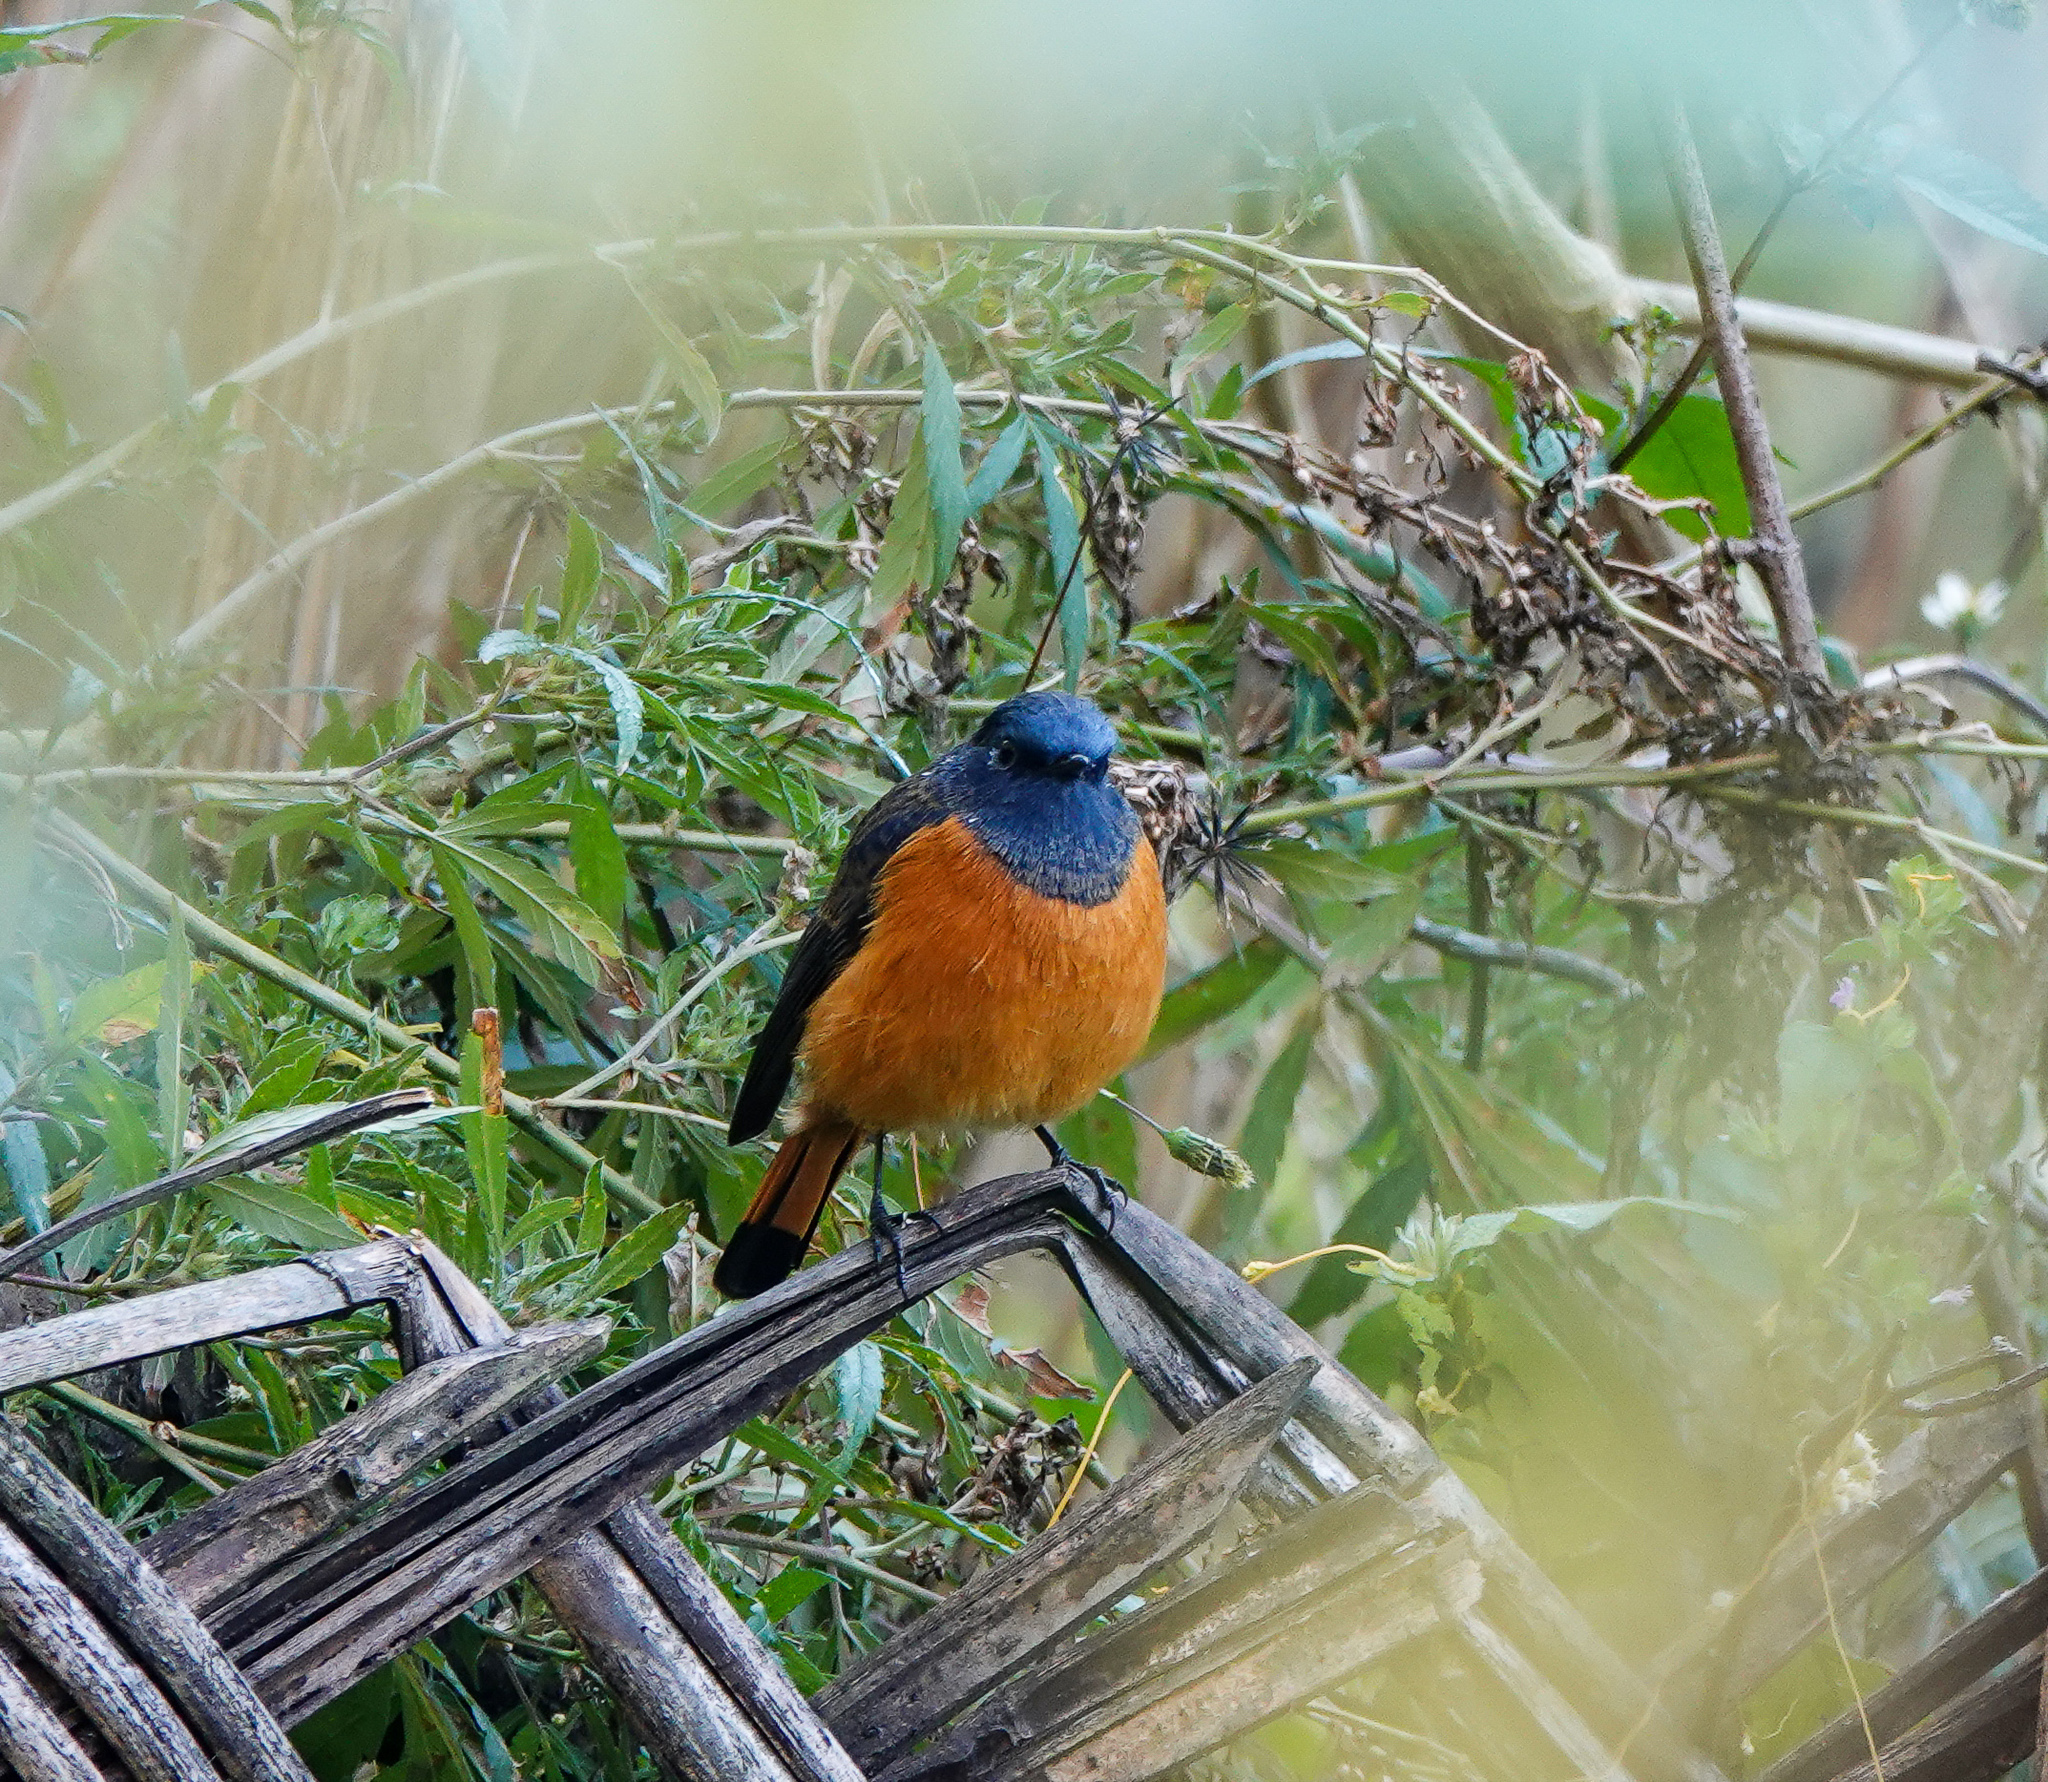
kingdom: Animalia
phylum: Chordata
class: Aves
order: Passeriformes
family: Muscicapidae
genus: Phoenicurus
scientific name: Phoenicurus frontalis
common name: Blue-fronted redstart
